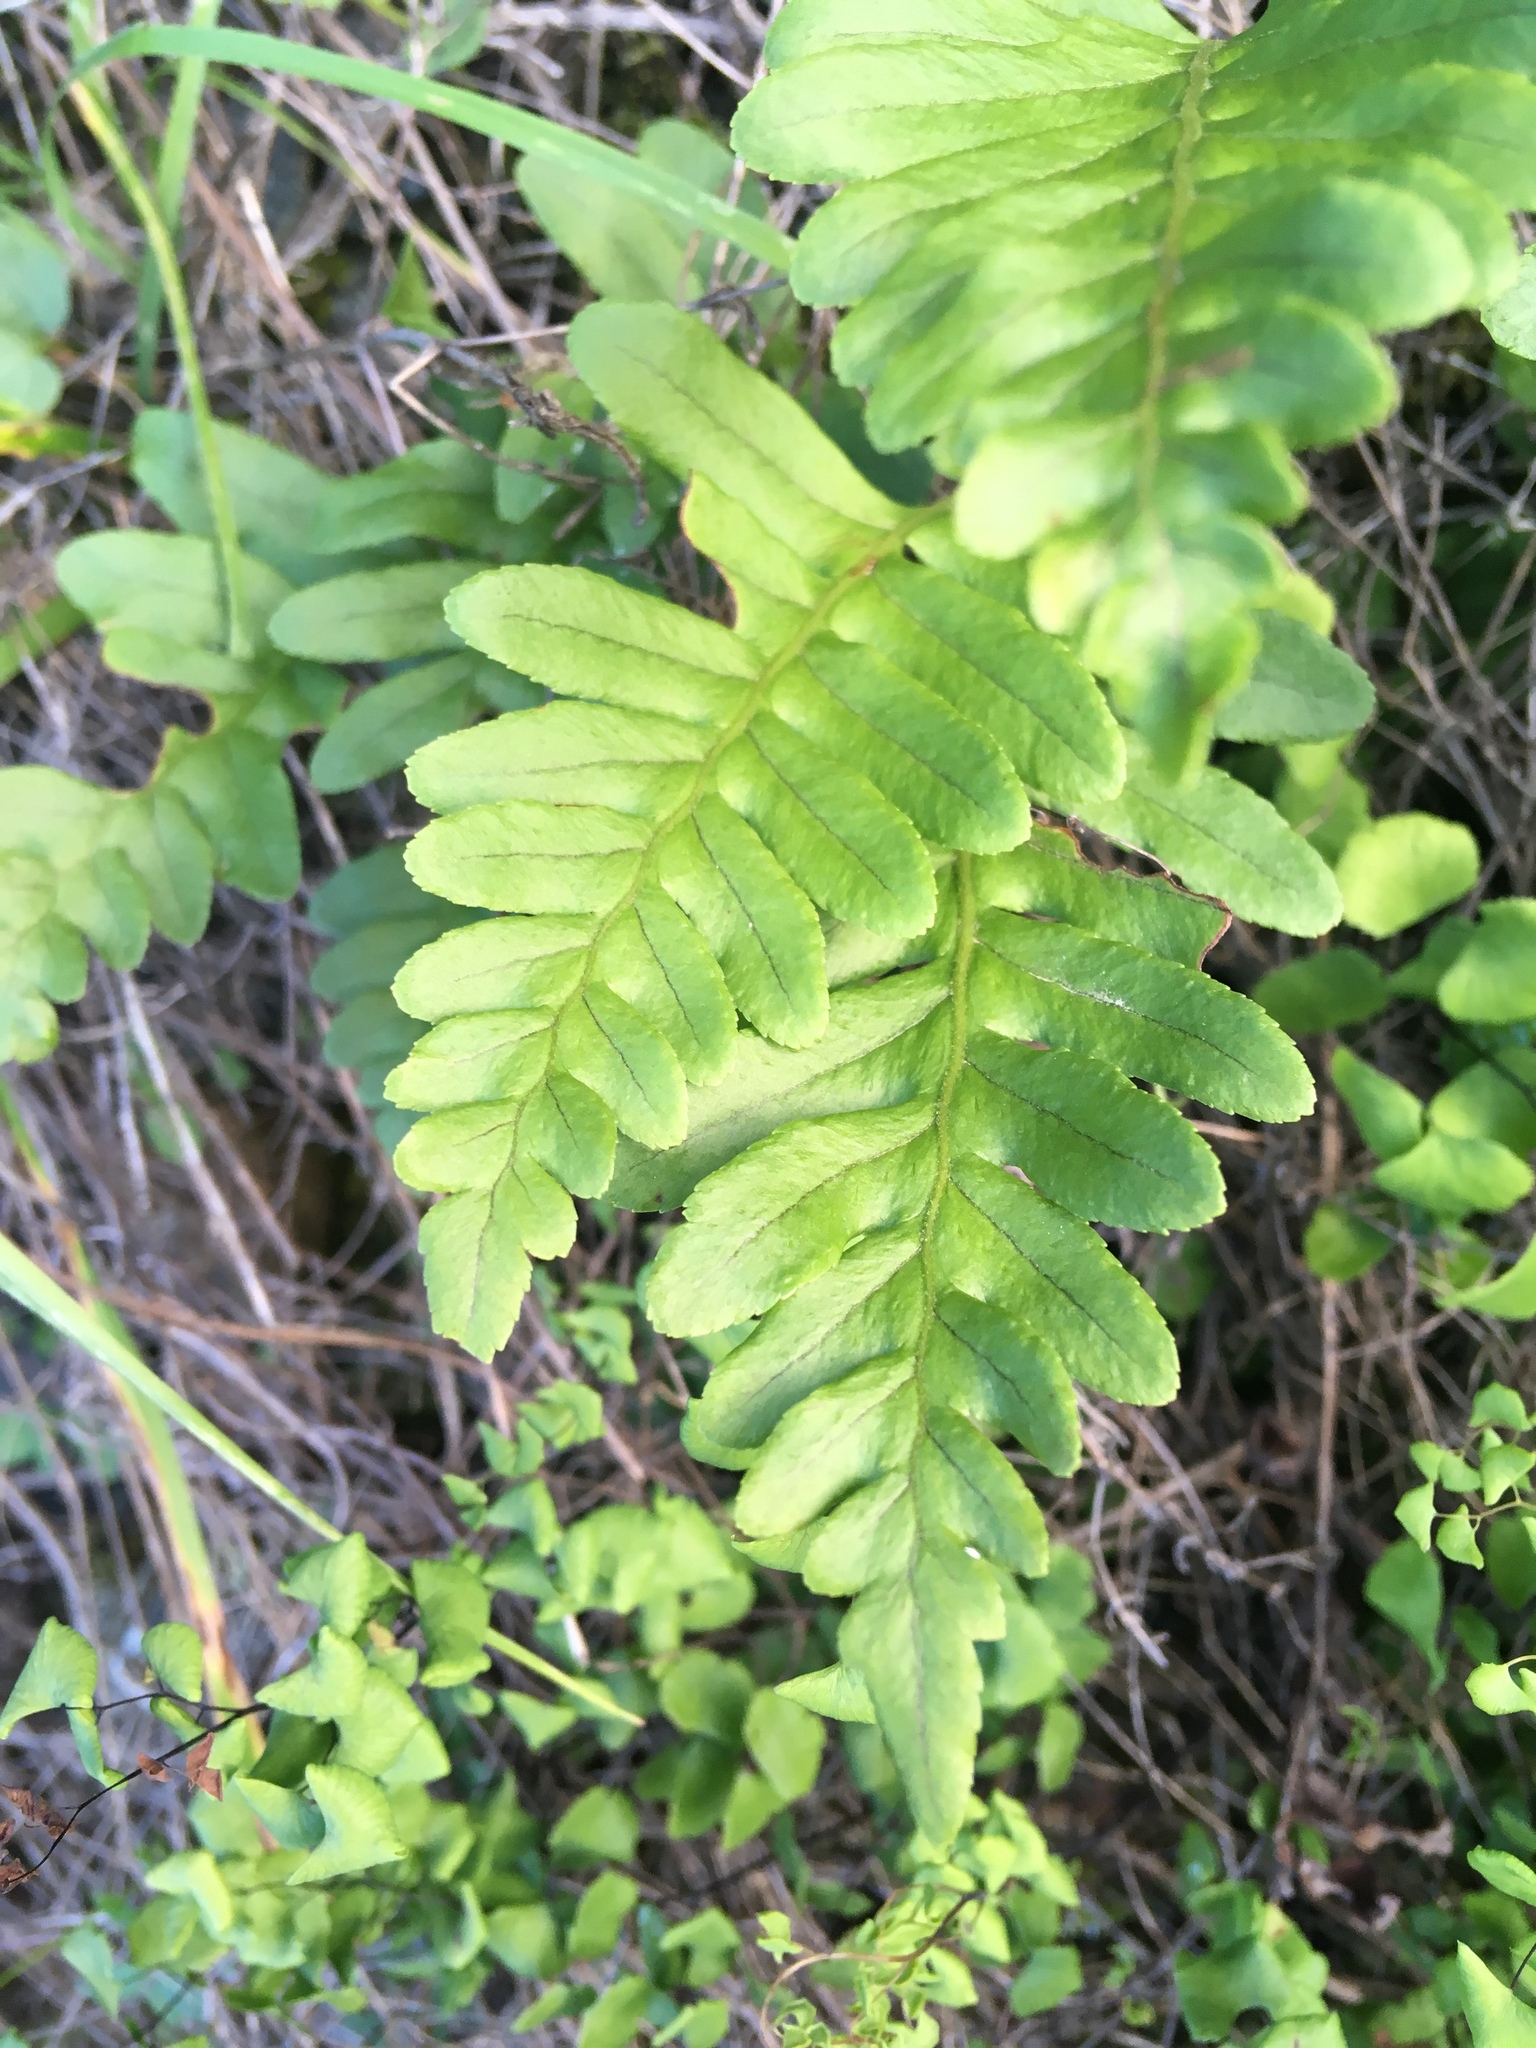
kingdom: Plantae
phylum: Tracheophyta
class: Polypodiopsida
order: Polypodiales
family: Polypodiaceae
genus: Polypodium
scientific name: Polypodium californicum
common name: California polypody
